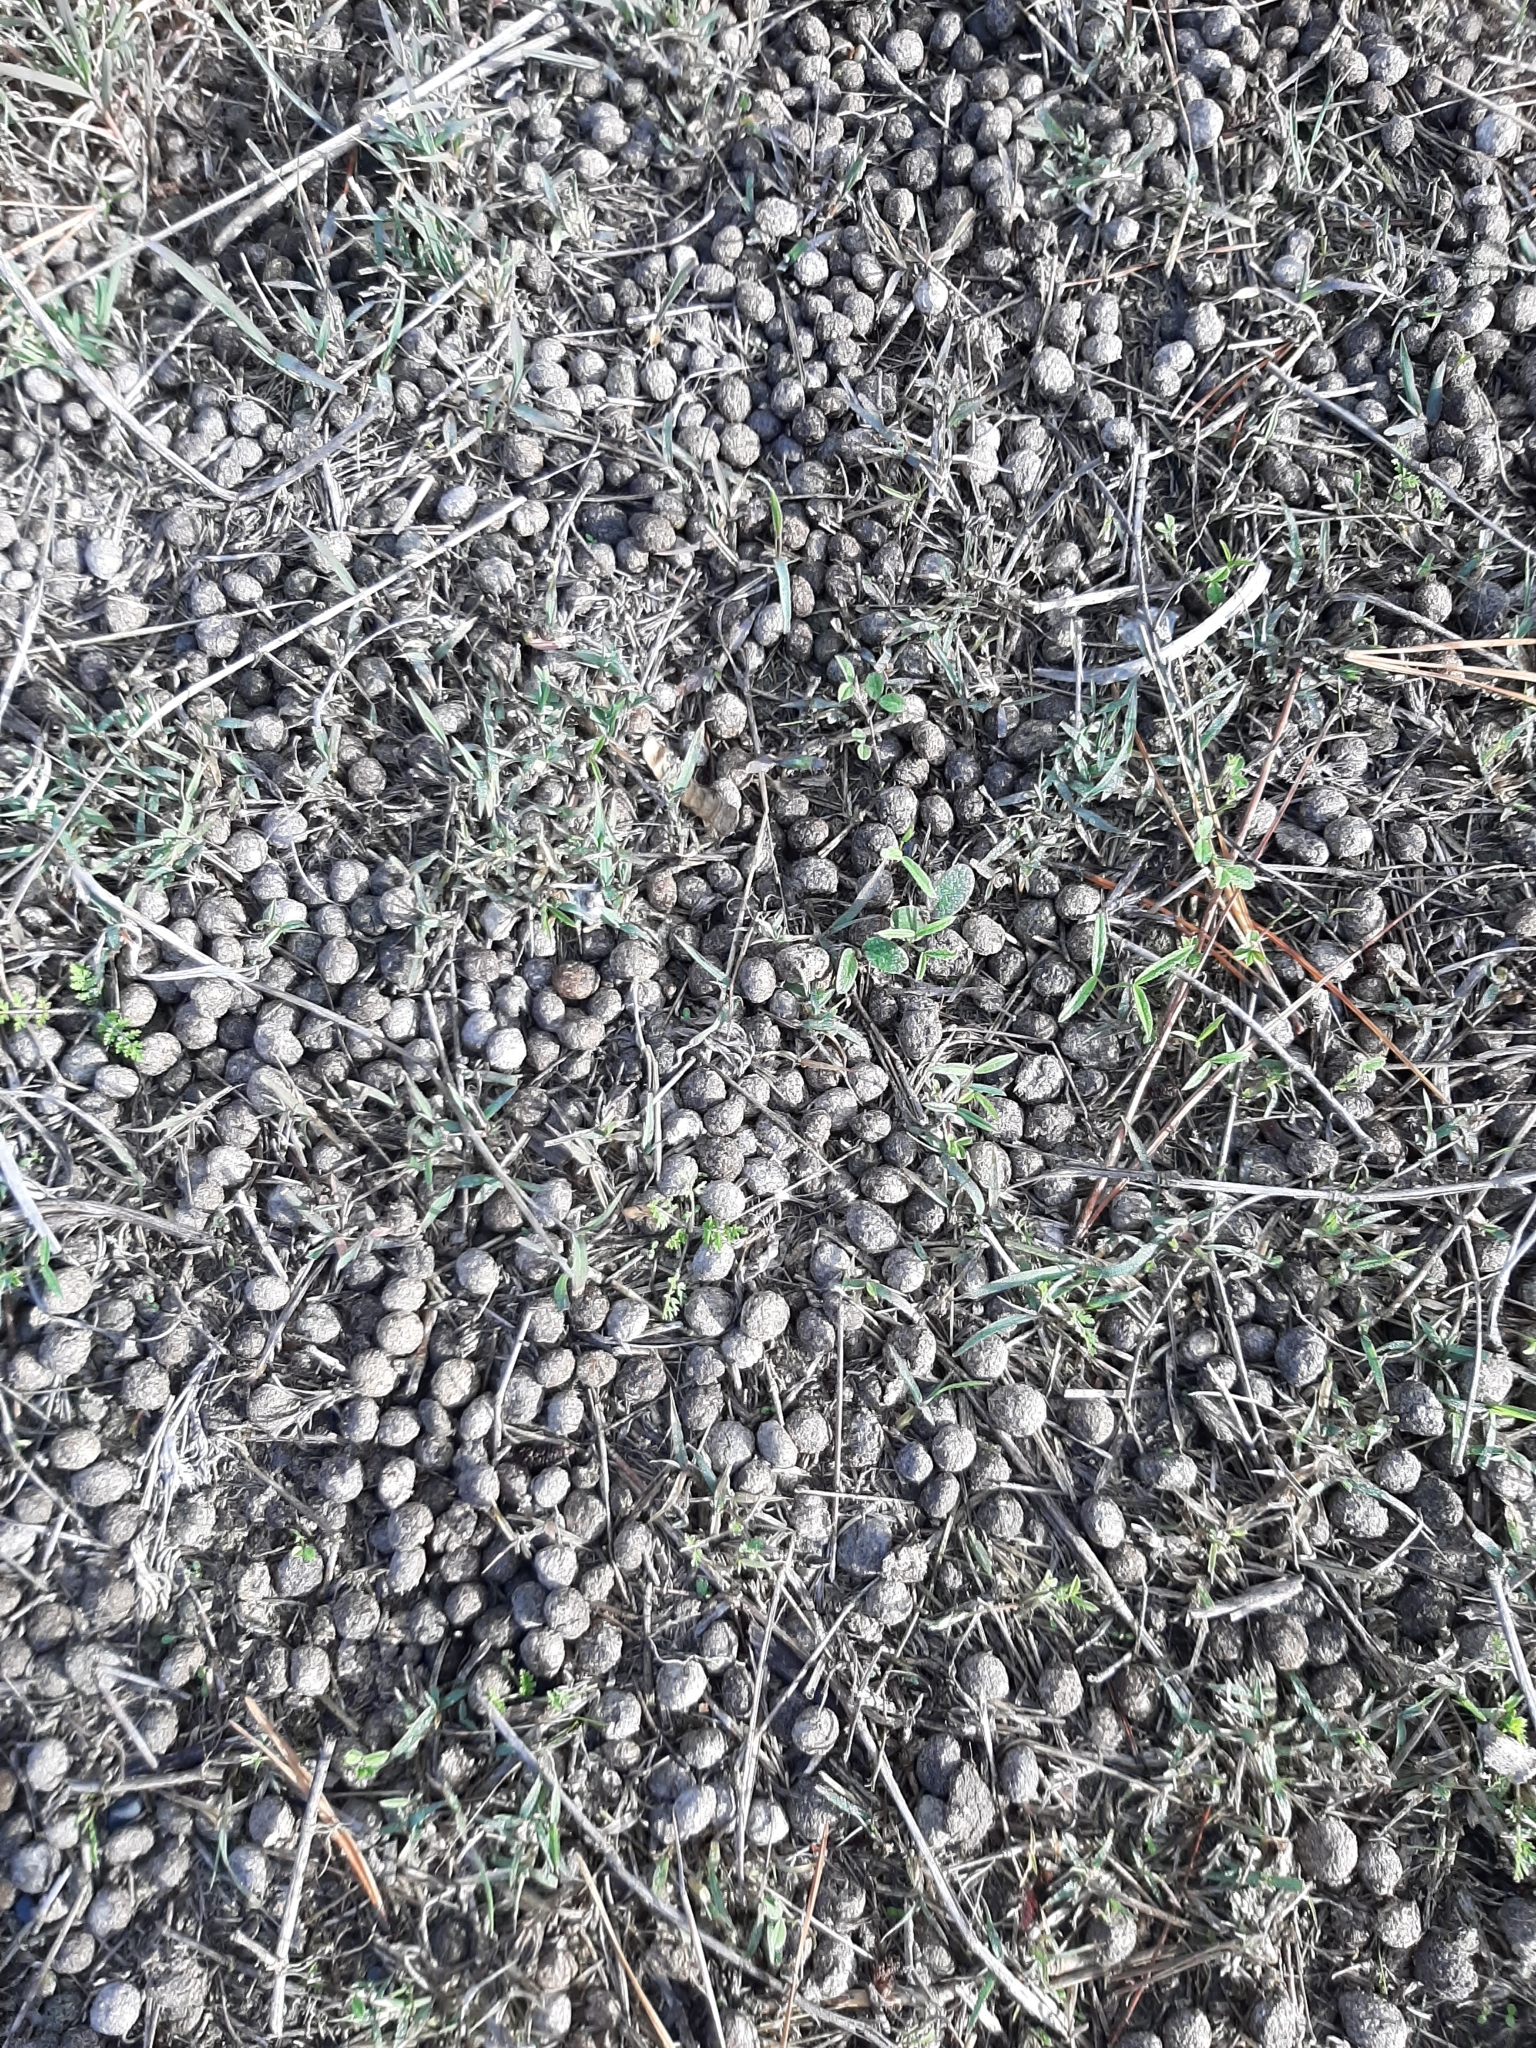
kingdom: Animalia
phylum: Chordata
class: Mammalia
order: Lagomorpha
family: Leporidae
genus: Oryctolagus
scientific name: Oryctolagus cuniculus
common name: European rabbit
